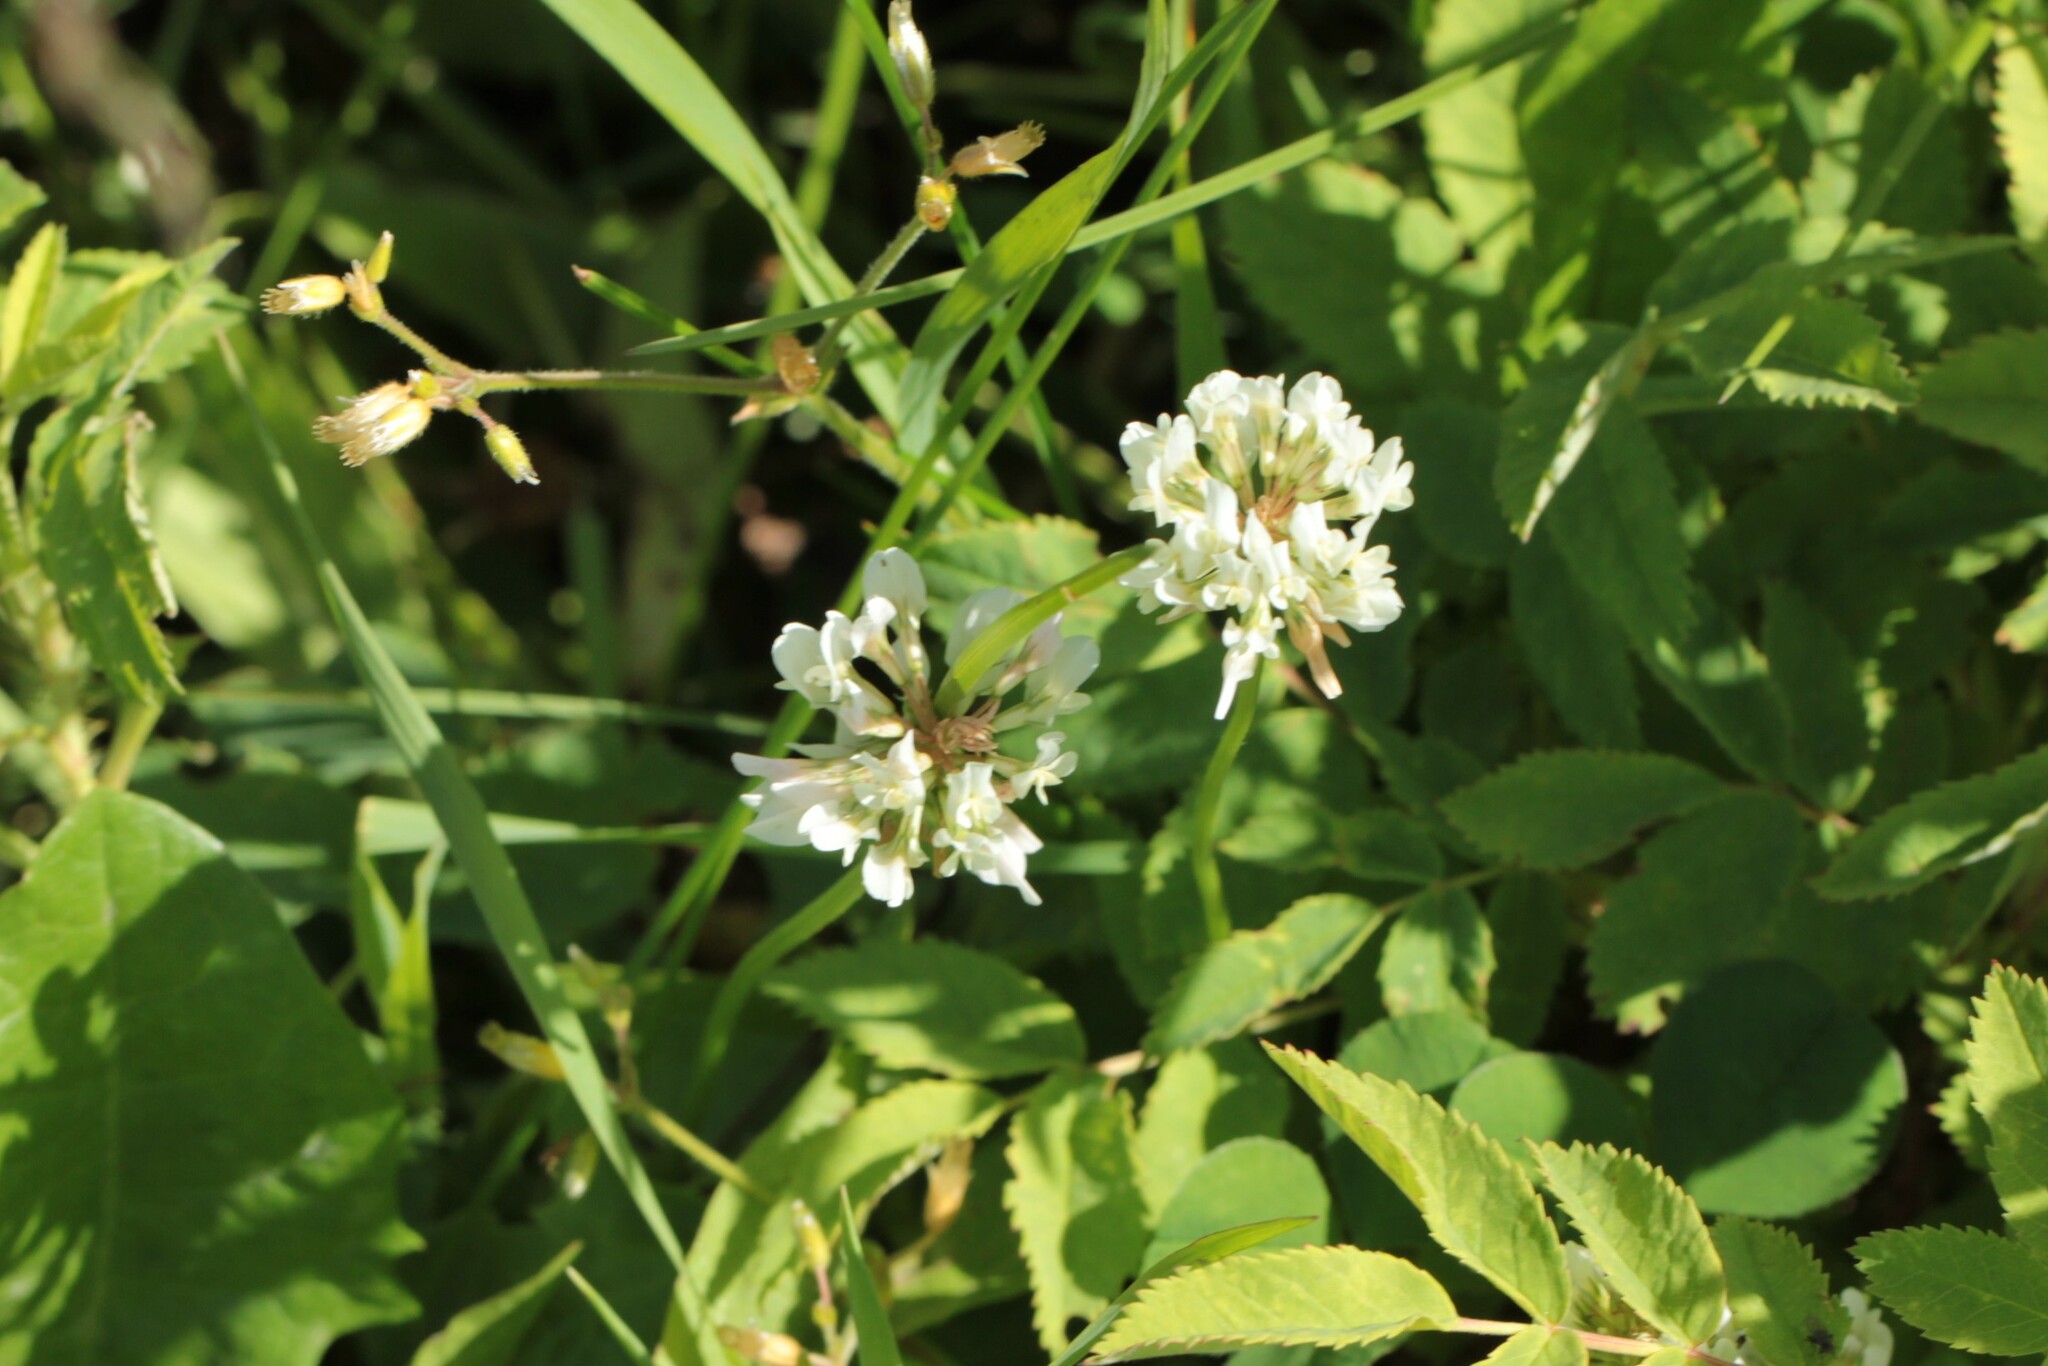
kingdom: Plantae
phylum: Tracheophyta
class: Magnoliopsida
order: Fabales
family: Fabaceae
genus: Trifolium
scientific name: Trifolium repens
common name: White clover
